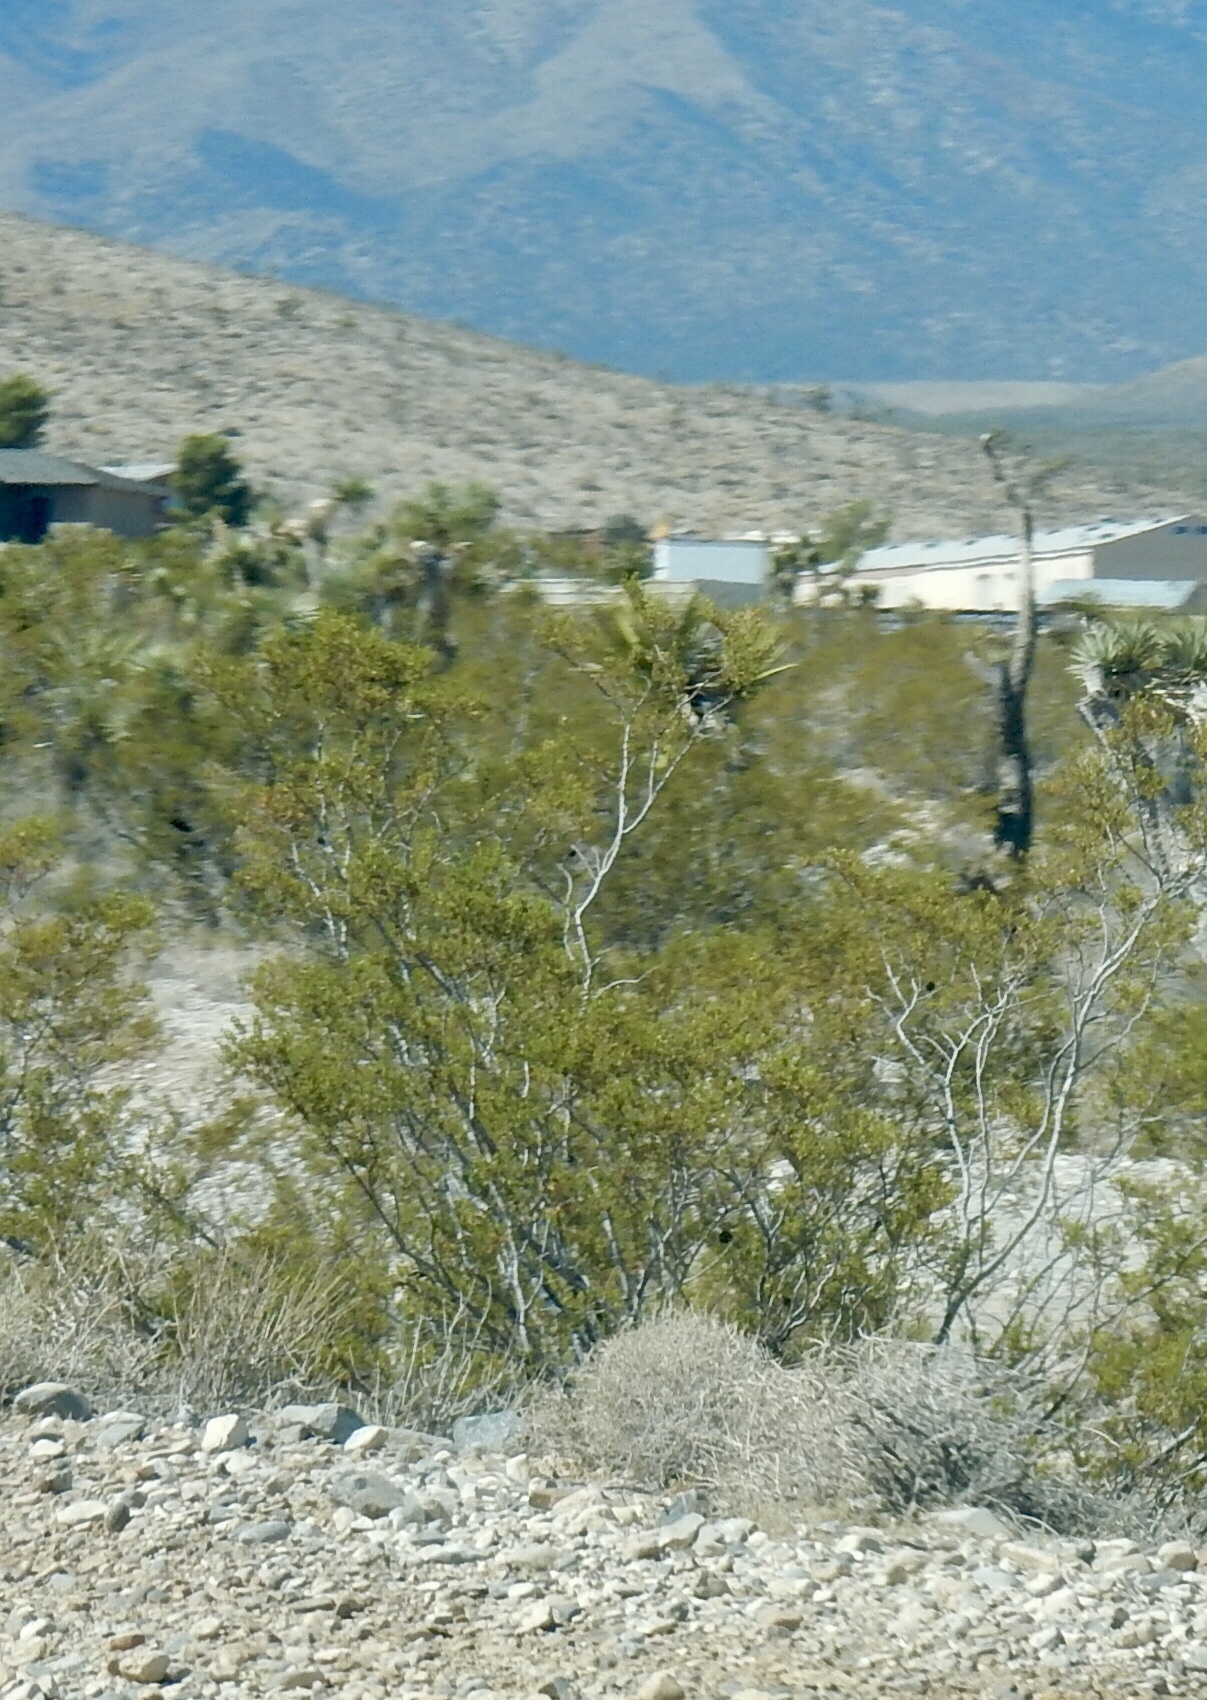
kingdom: Plantae
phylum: Tracheophyta
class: Magnoliopsida
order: Zygophyllales
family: Zygophyllaceae
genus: Larrea
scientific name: Larrea tridentata
